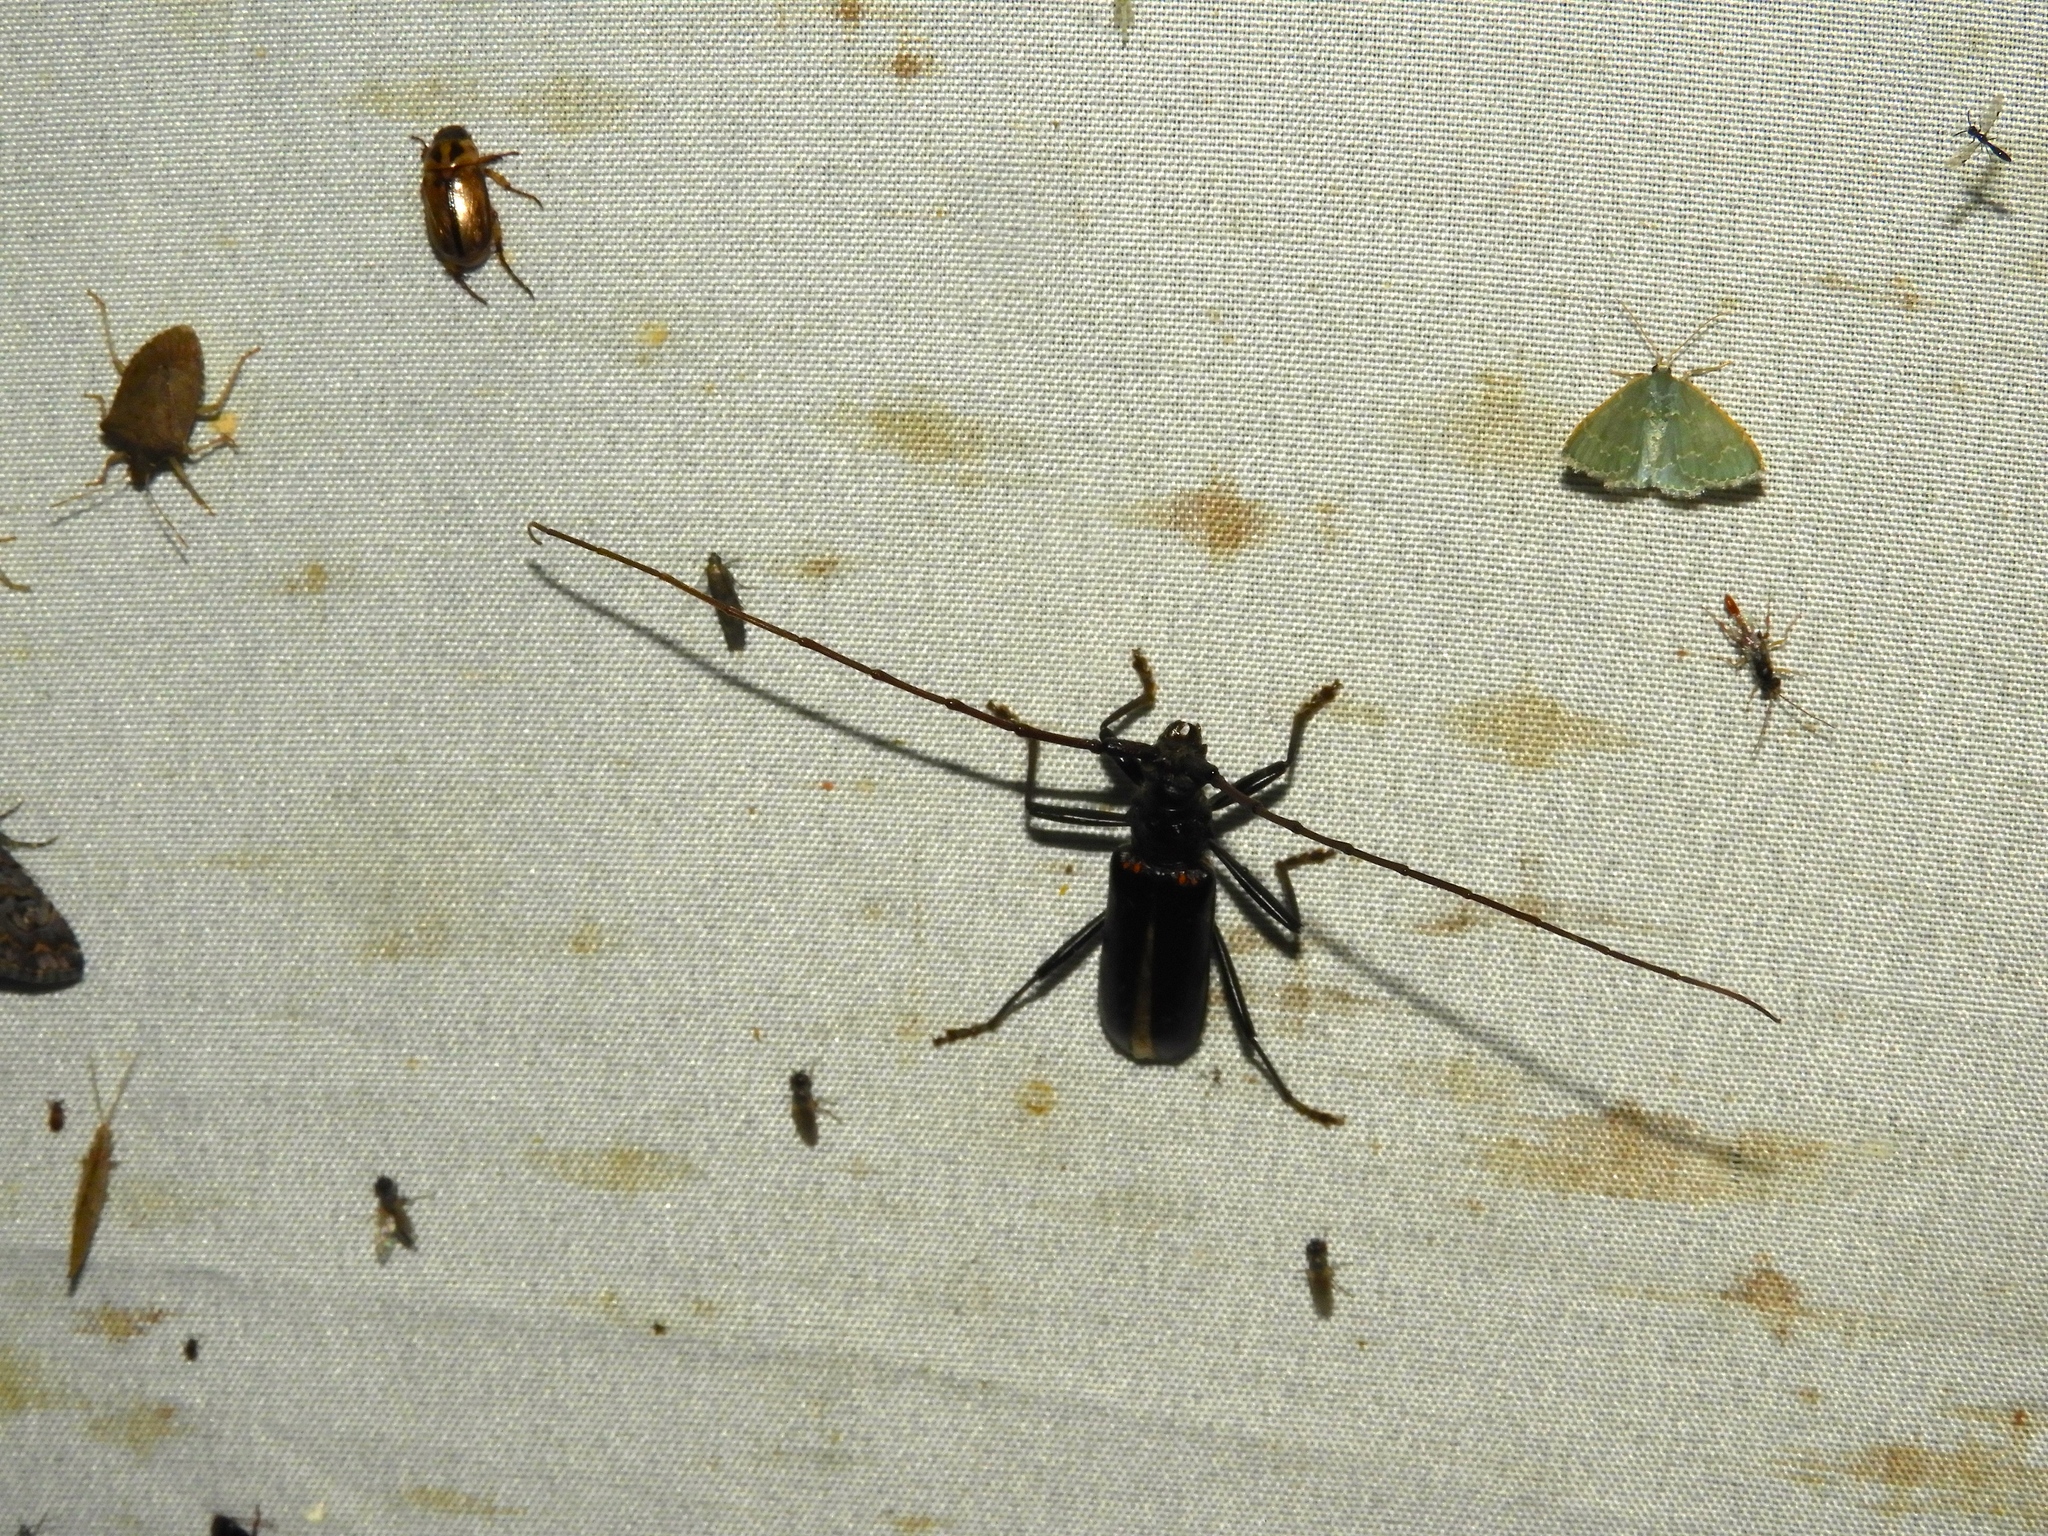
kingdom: Animalia
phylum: Arthropoda
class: Insecta
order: Coleoptera
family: Cerambycidae
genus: Susuacanga
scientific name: Susuacanga ulkei
